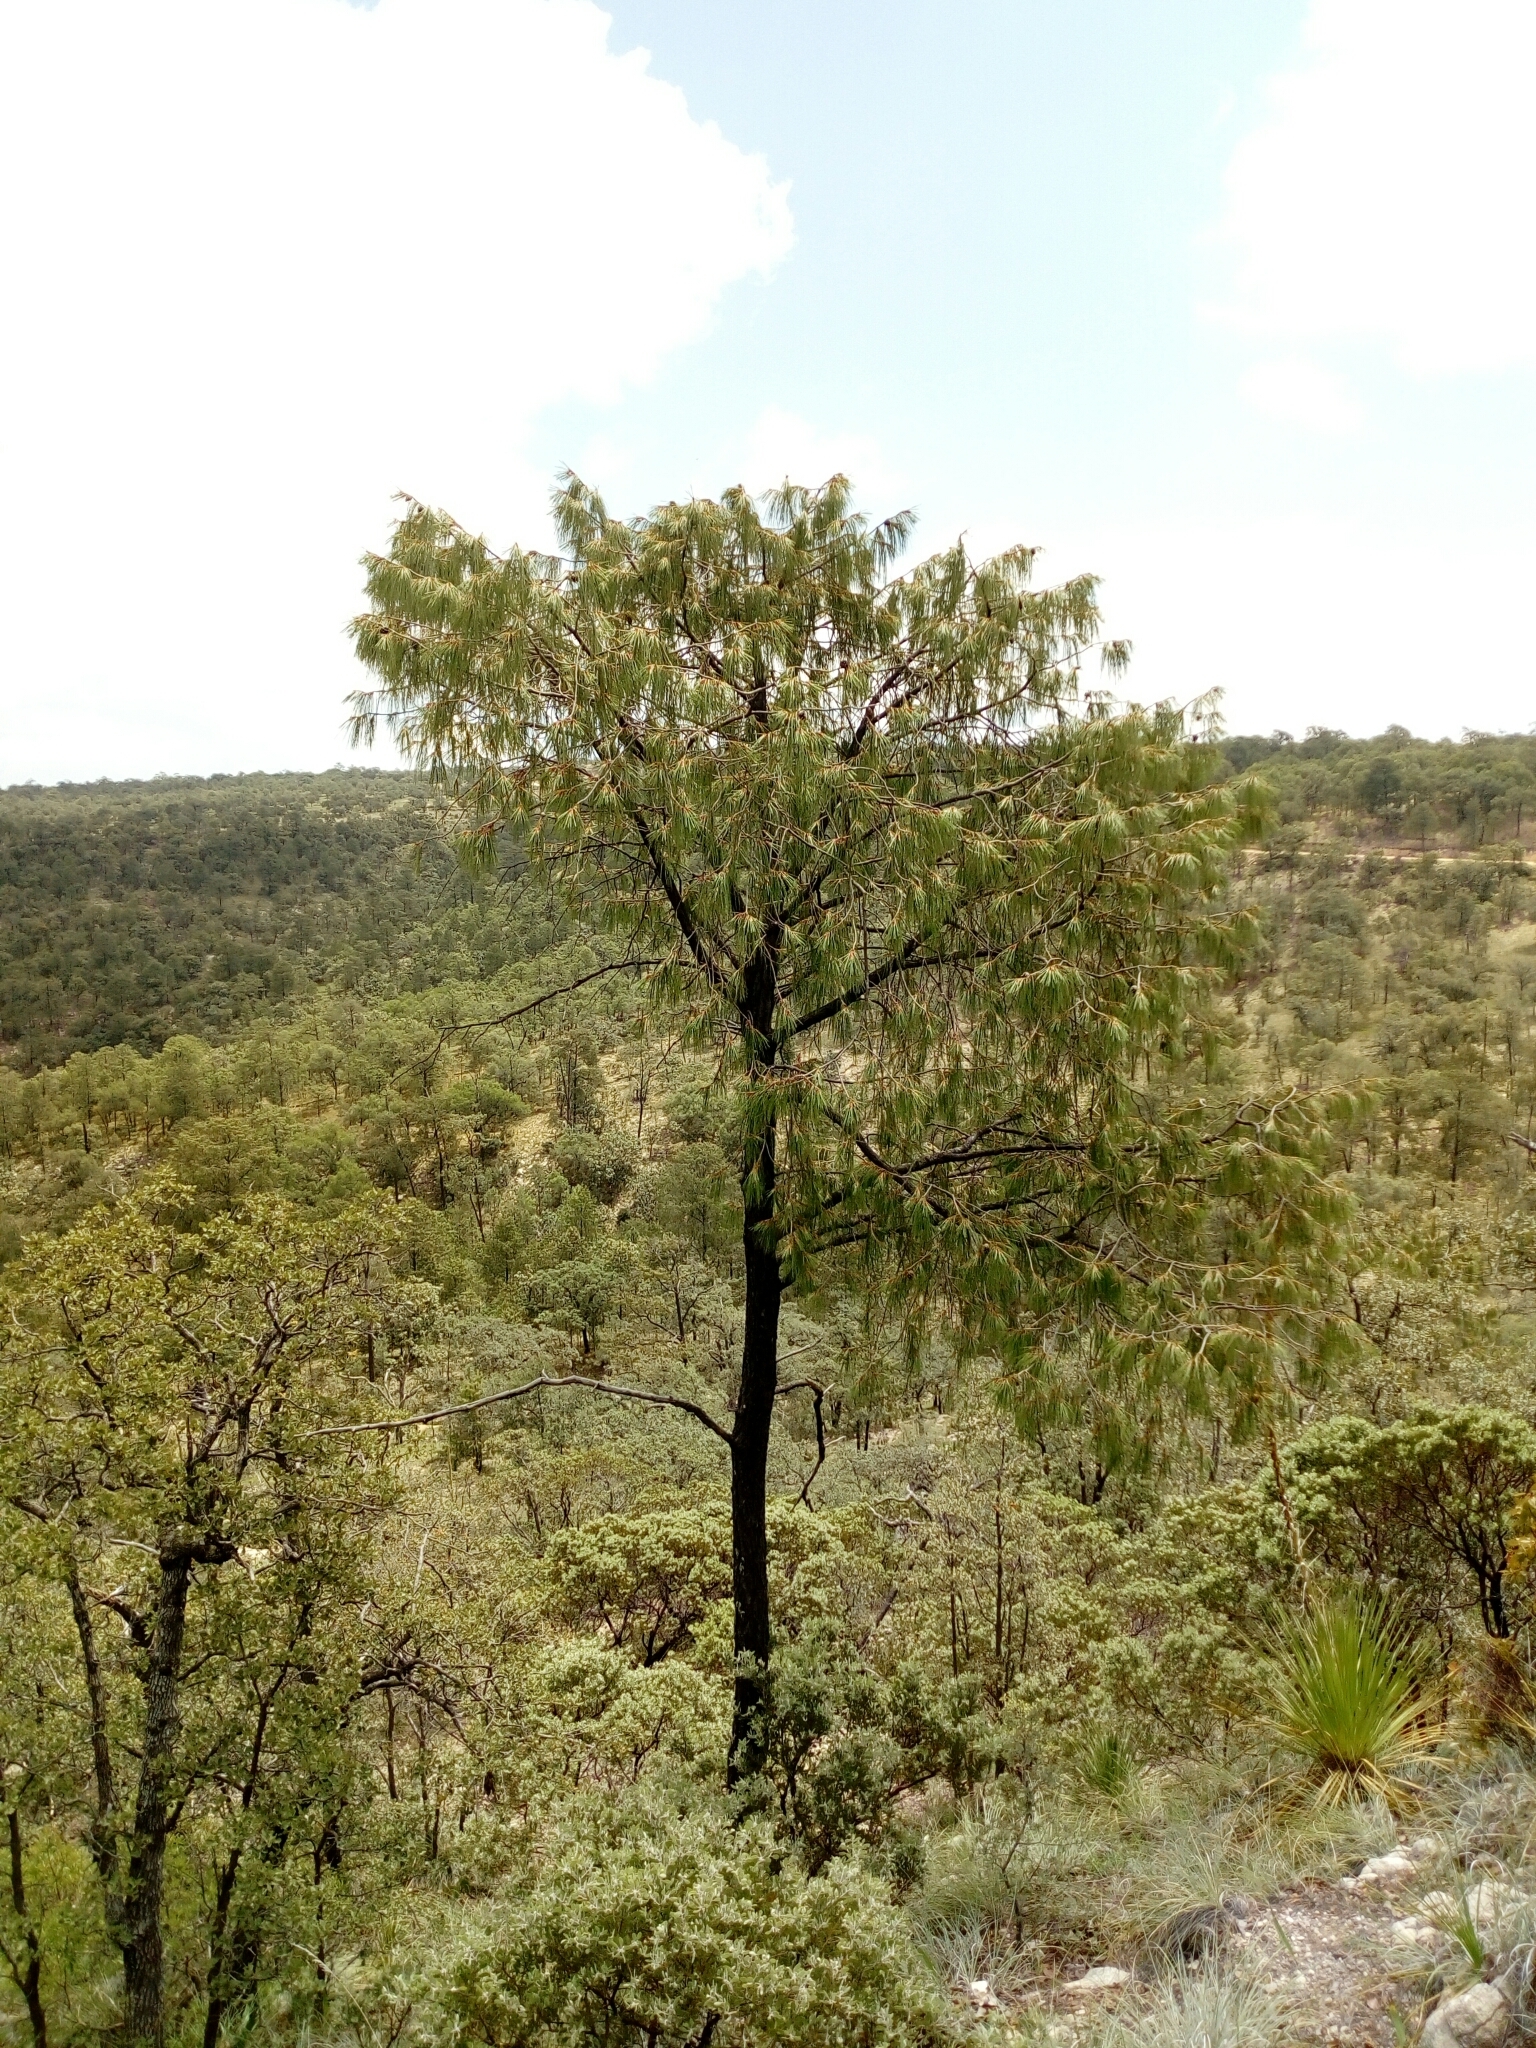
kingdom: Plantae
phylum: Tracheophyta
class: Pinopsida
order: Pinales
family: Pinaceae
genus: Pinus
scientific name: Pinus lumholtzii
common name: Lumholtz's pine
